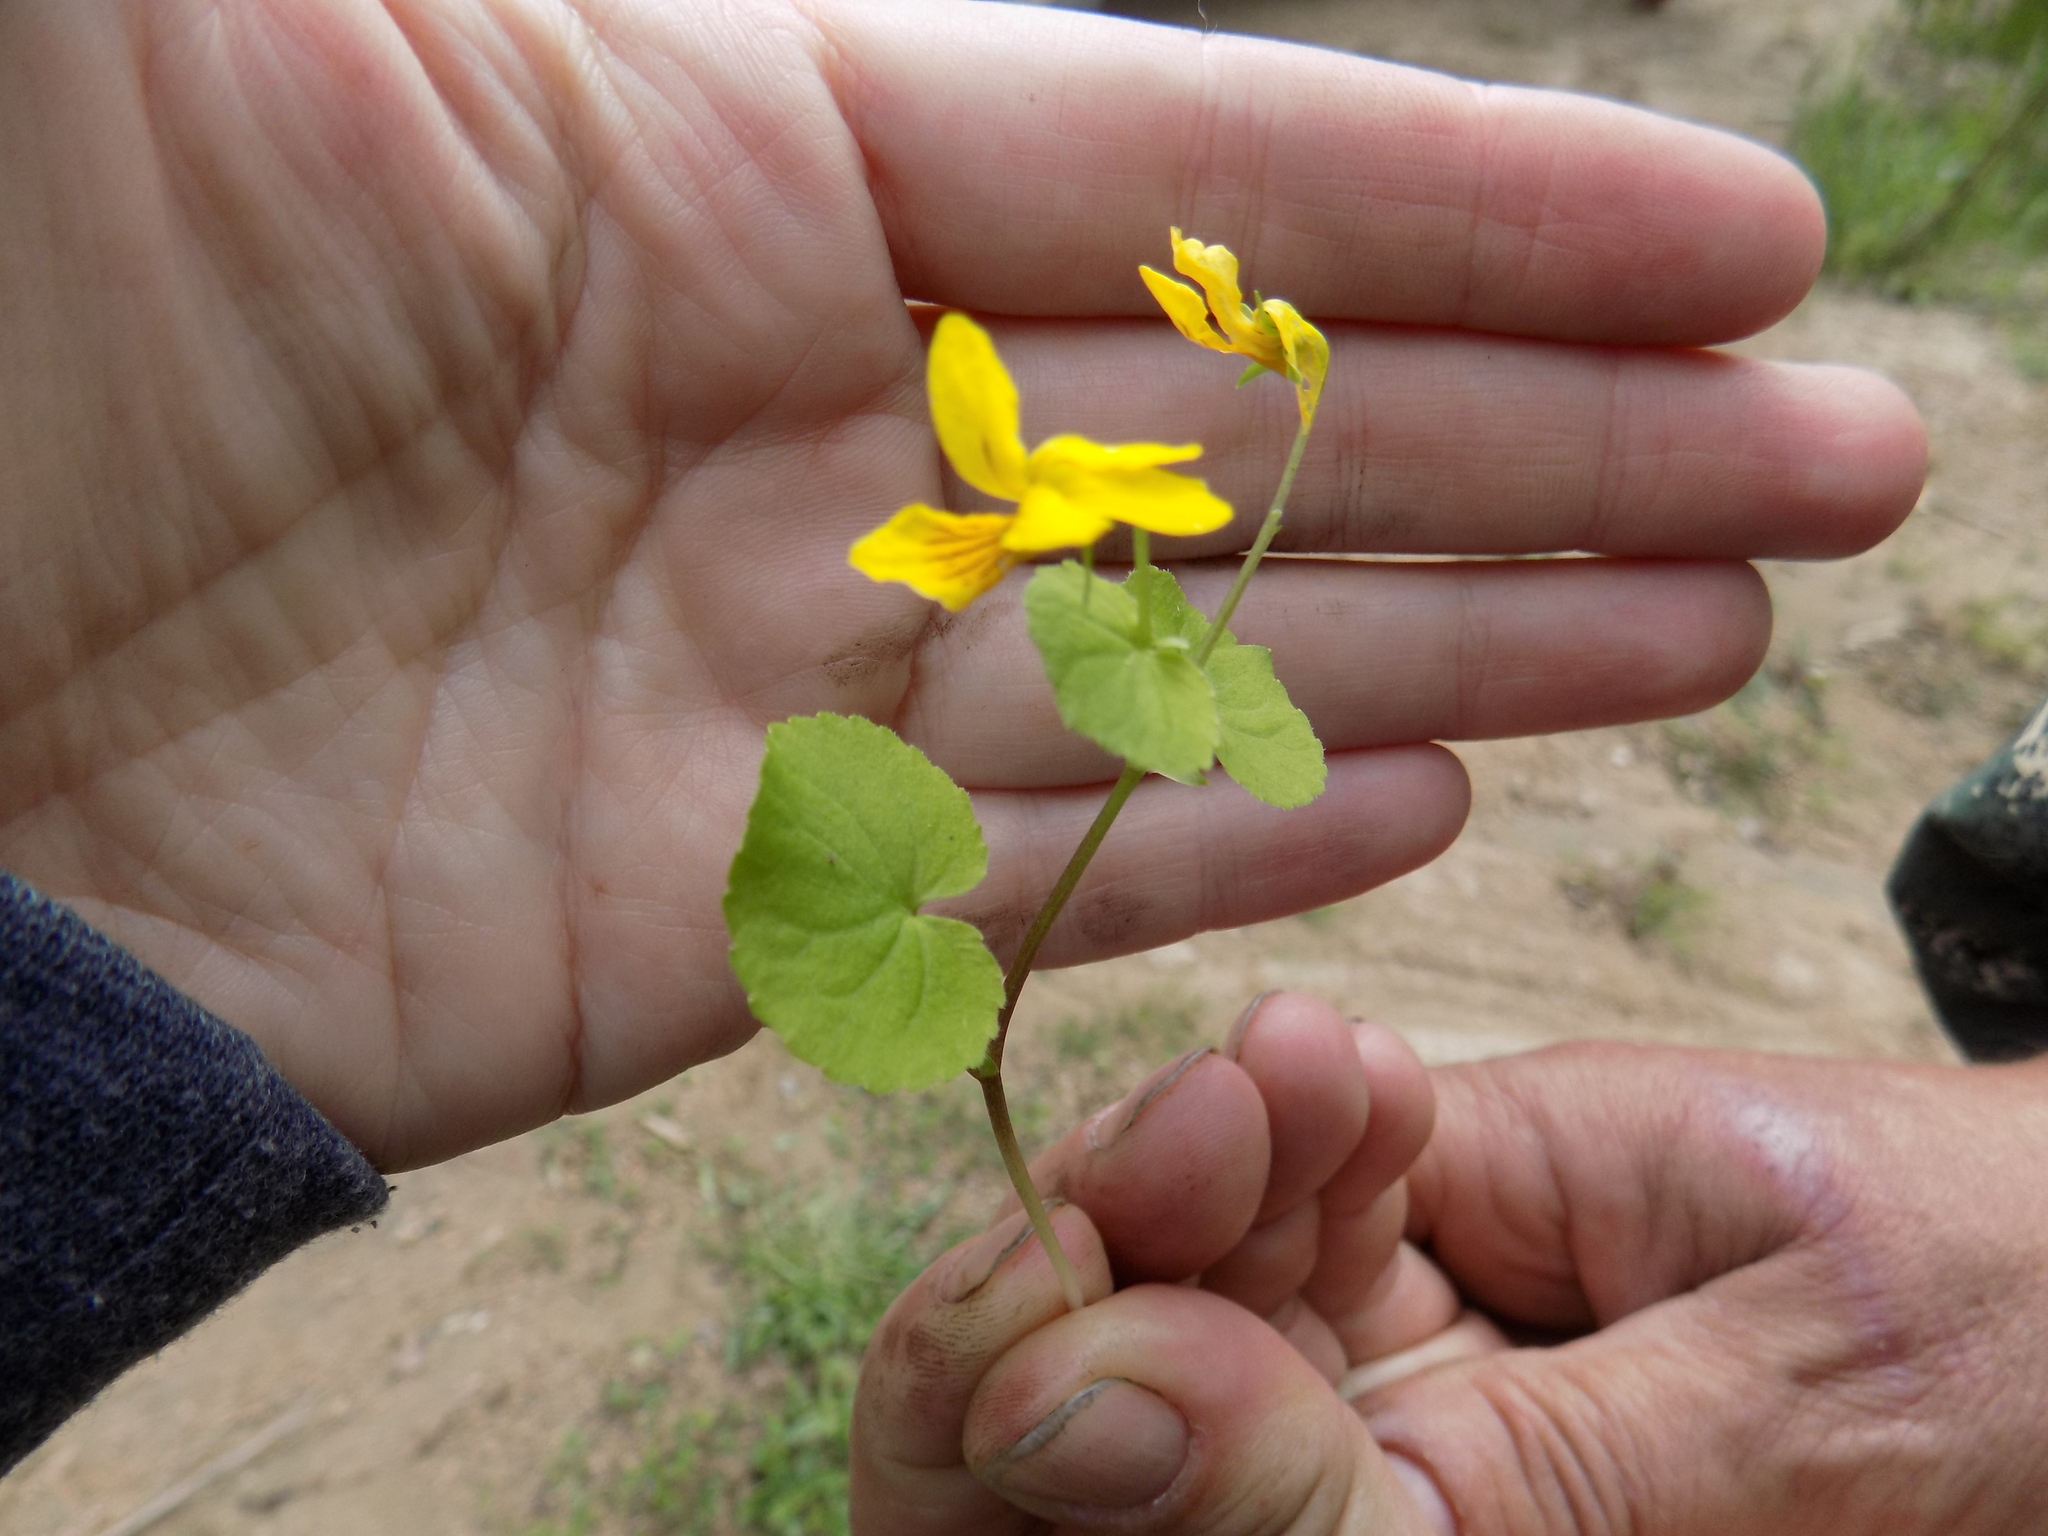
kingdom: Plantae
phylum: Tracheophyta
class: Magnoliopsida
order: Malpighiales
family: Violaceae
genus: Viola
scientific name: Viola biflora
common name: Alpine yellow violet
